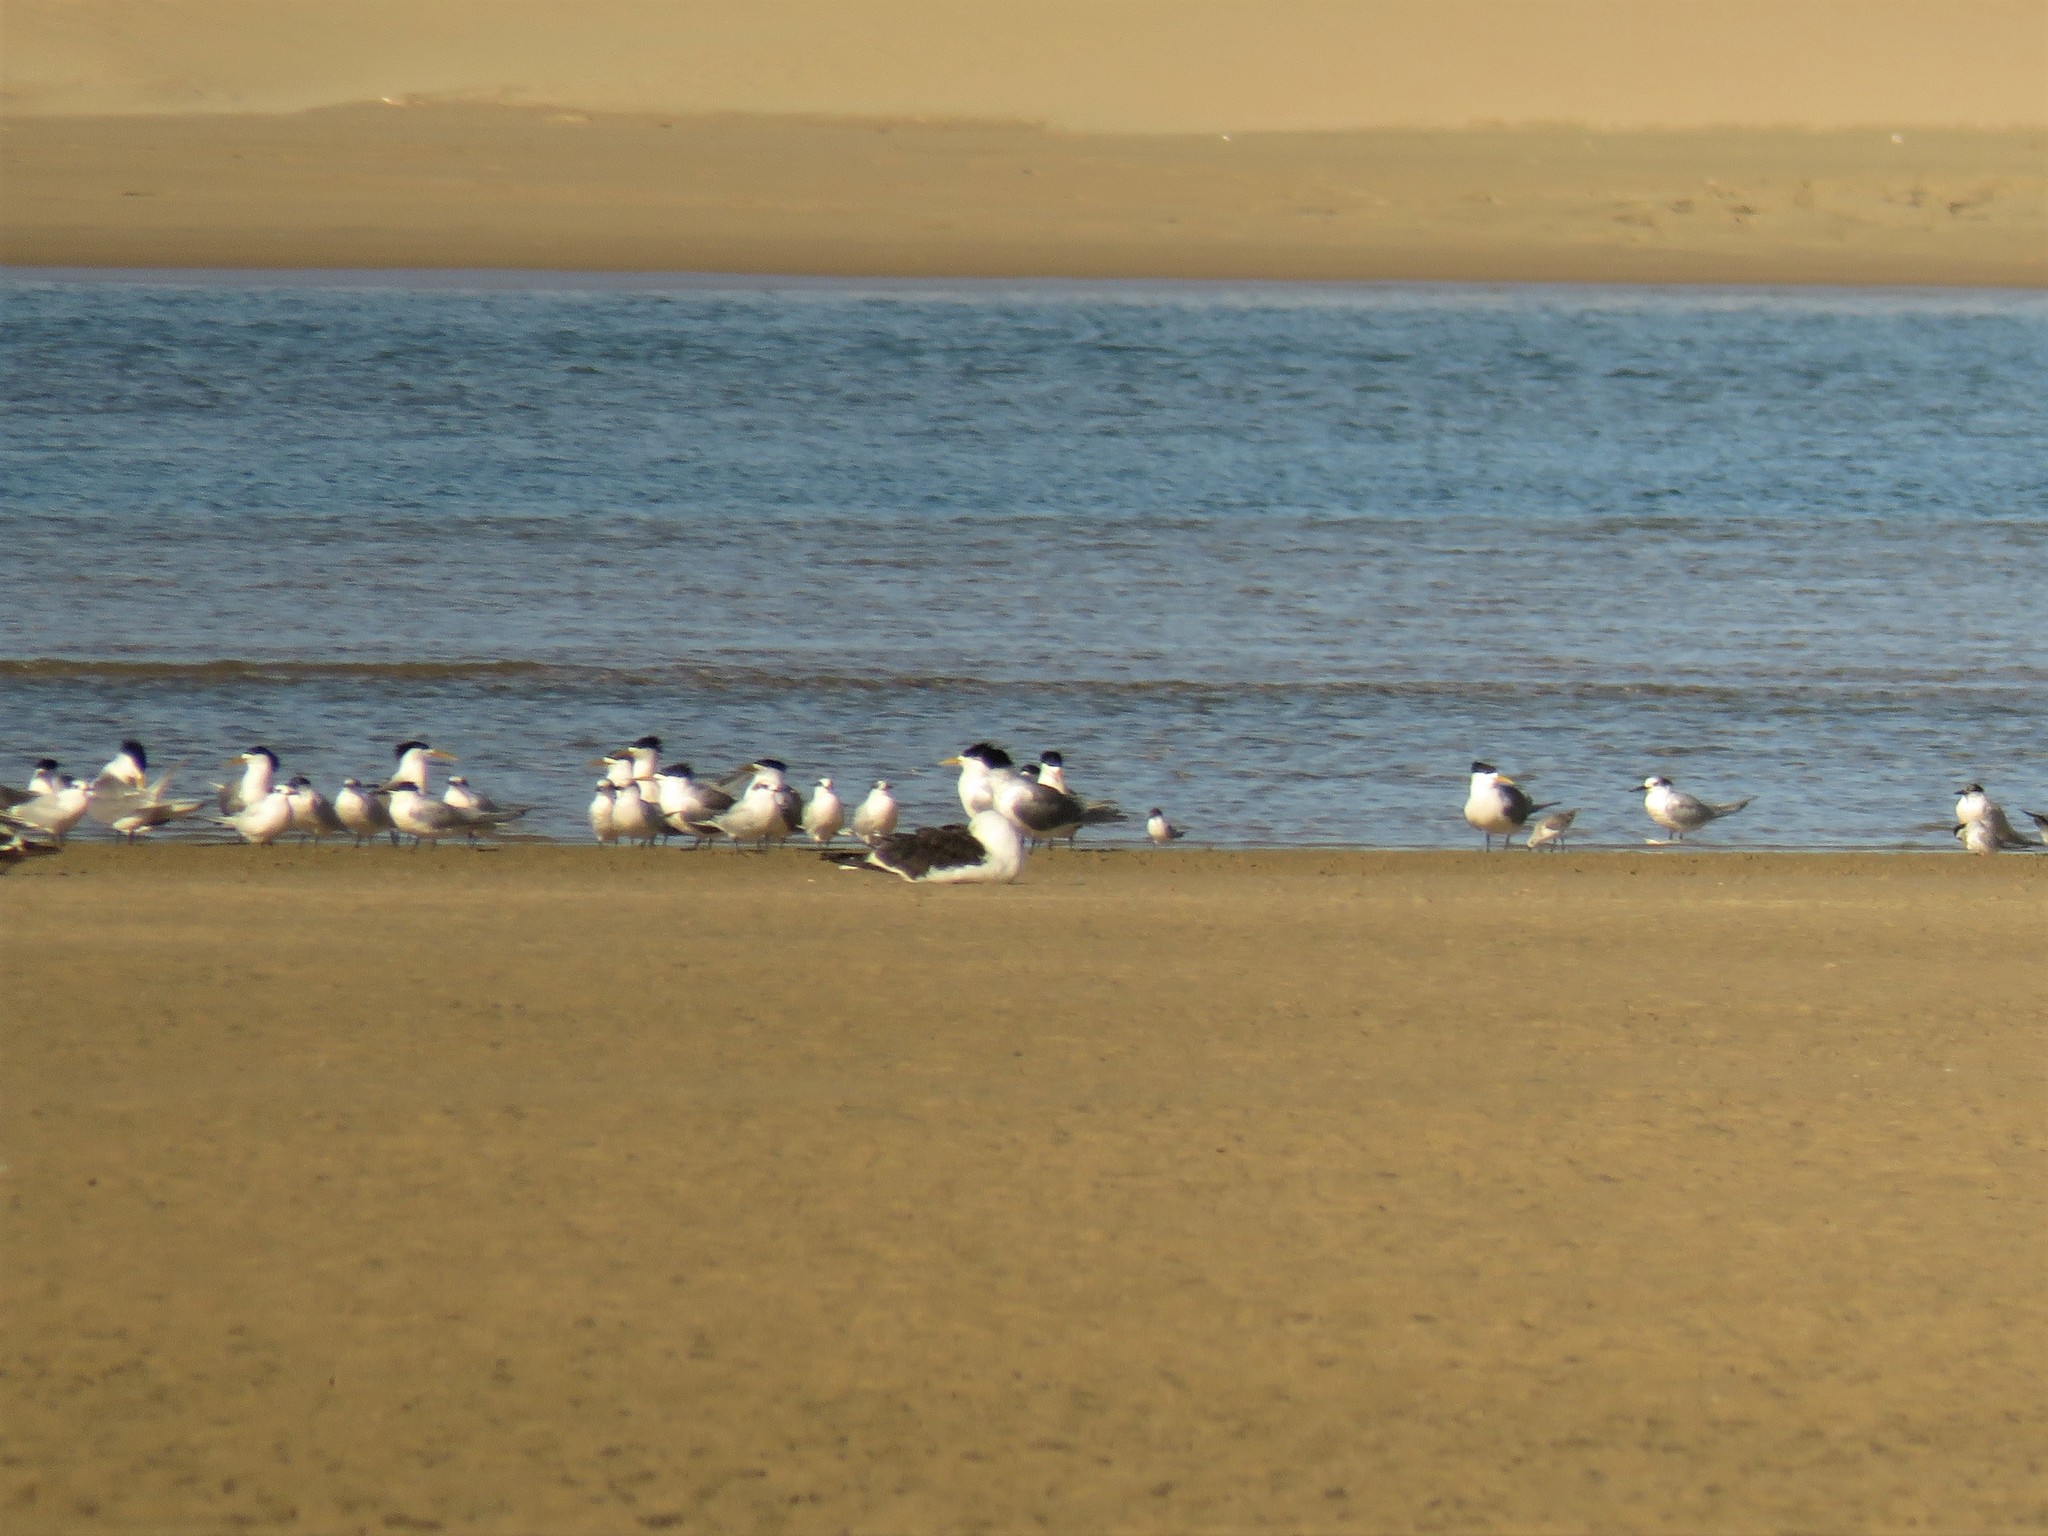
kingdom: Animalia
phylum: Chordata
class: Aves
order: Charadriiformes
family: Laridae
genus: Thalasseus
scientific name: Thalasseus bergii
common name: Greater crested tern
